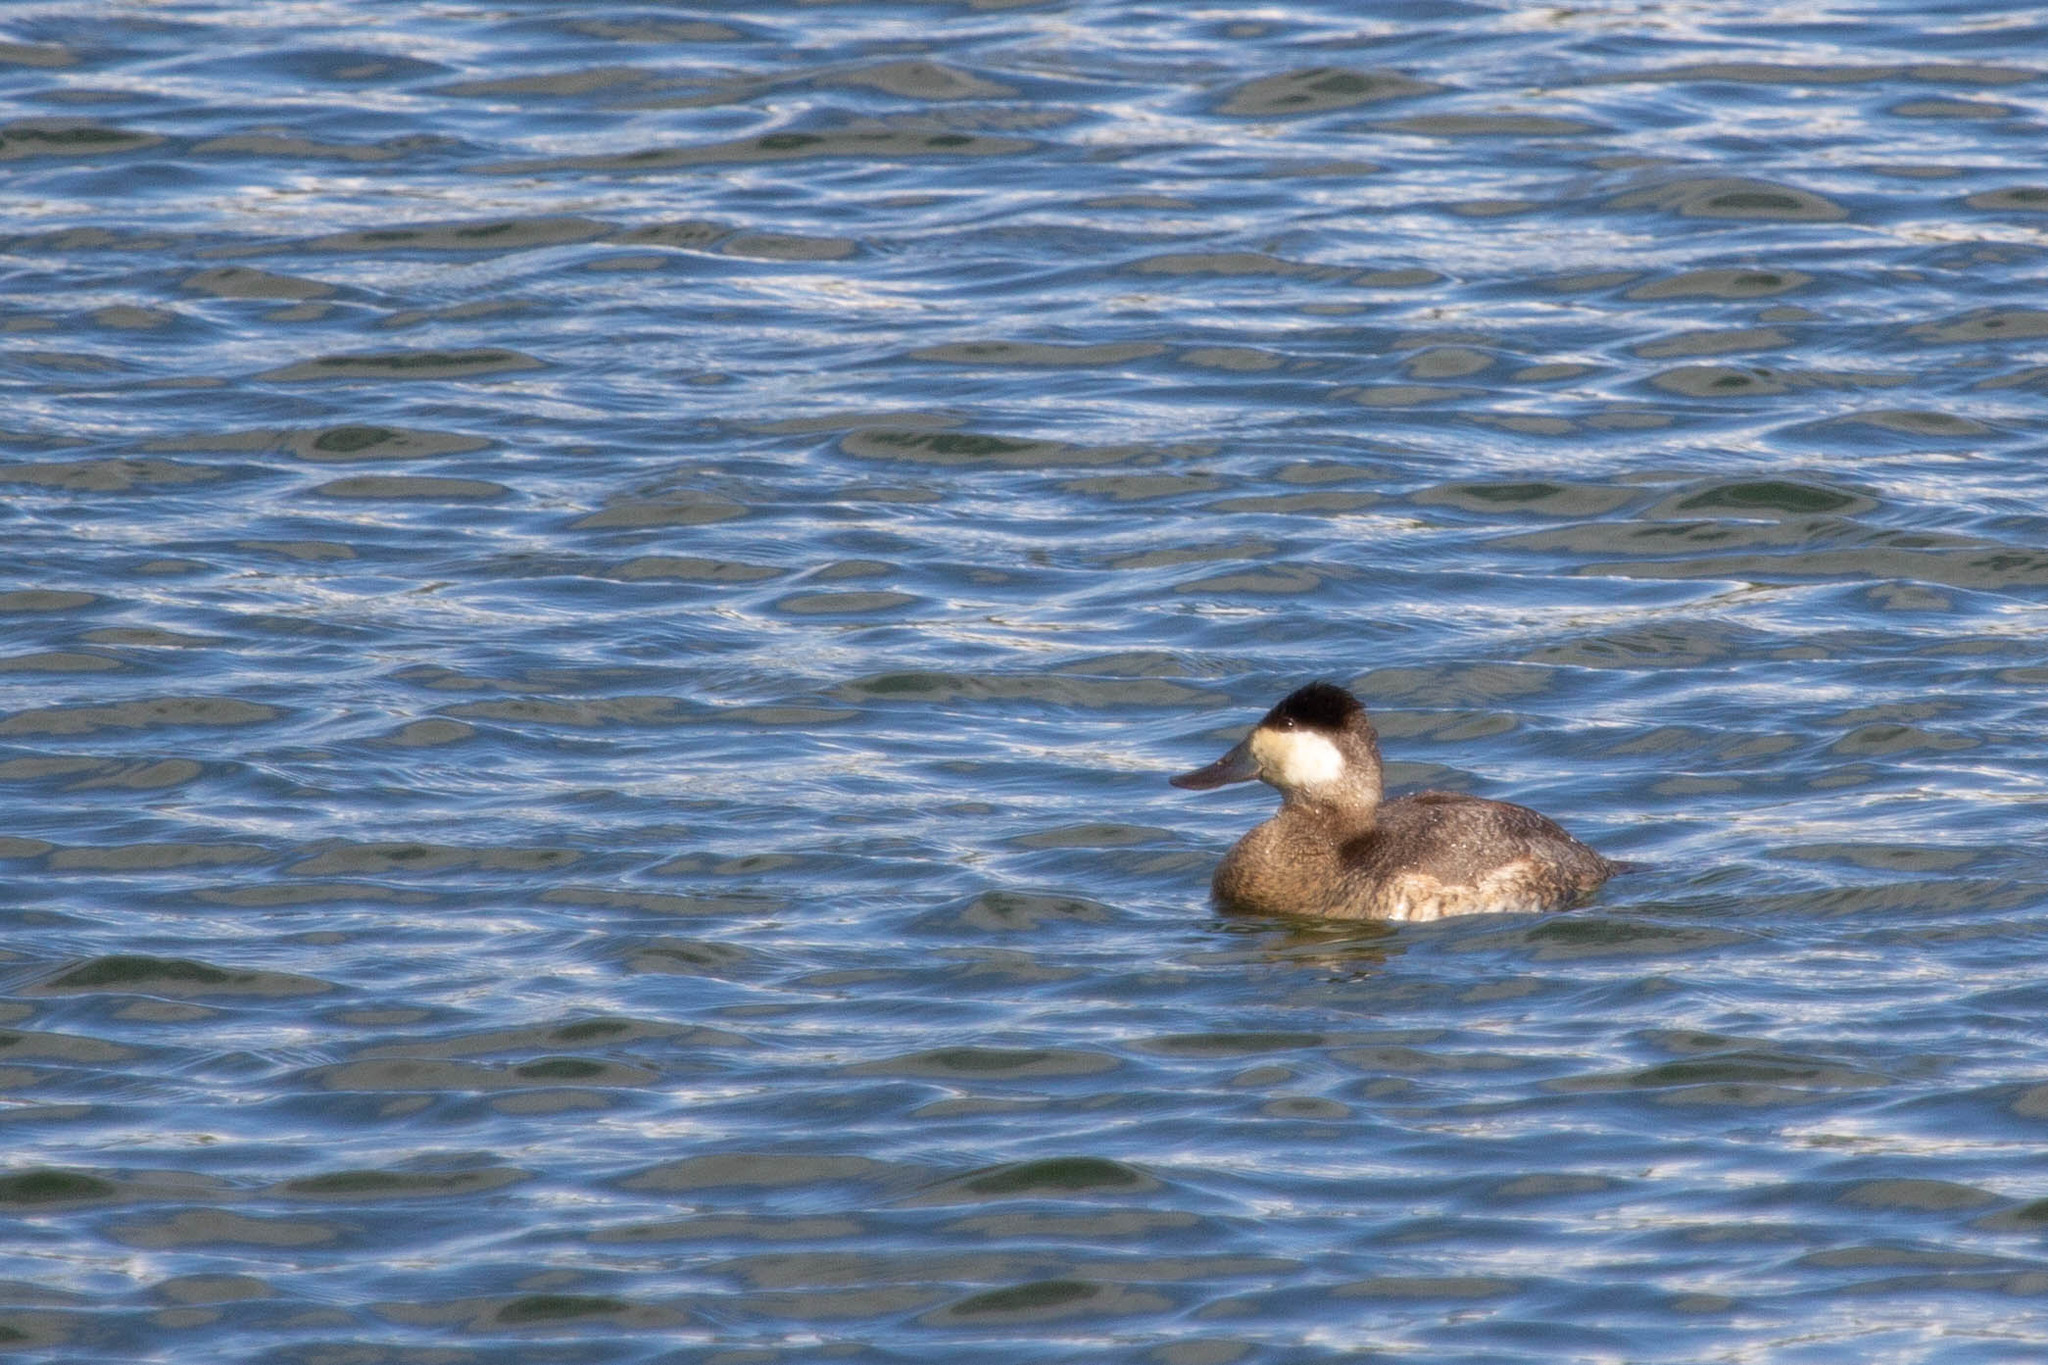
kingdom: Animalia
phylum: Chordata
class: Aves
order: Anseriformes
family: Anatidae
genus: Oxyura
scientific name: Oxyura jamaicensis
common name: Ruddy duck
